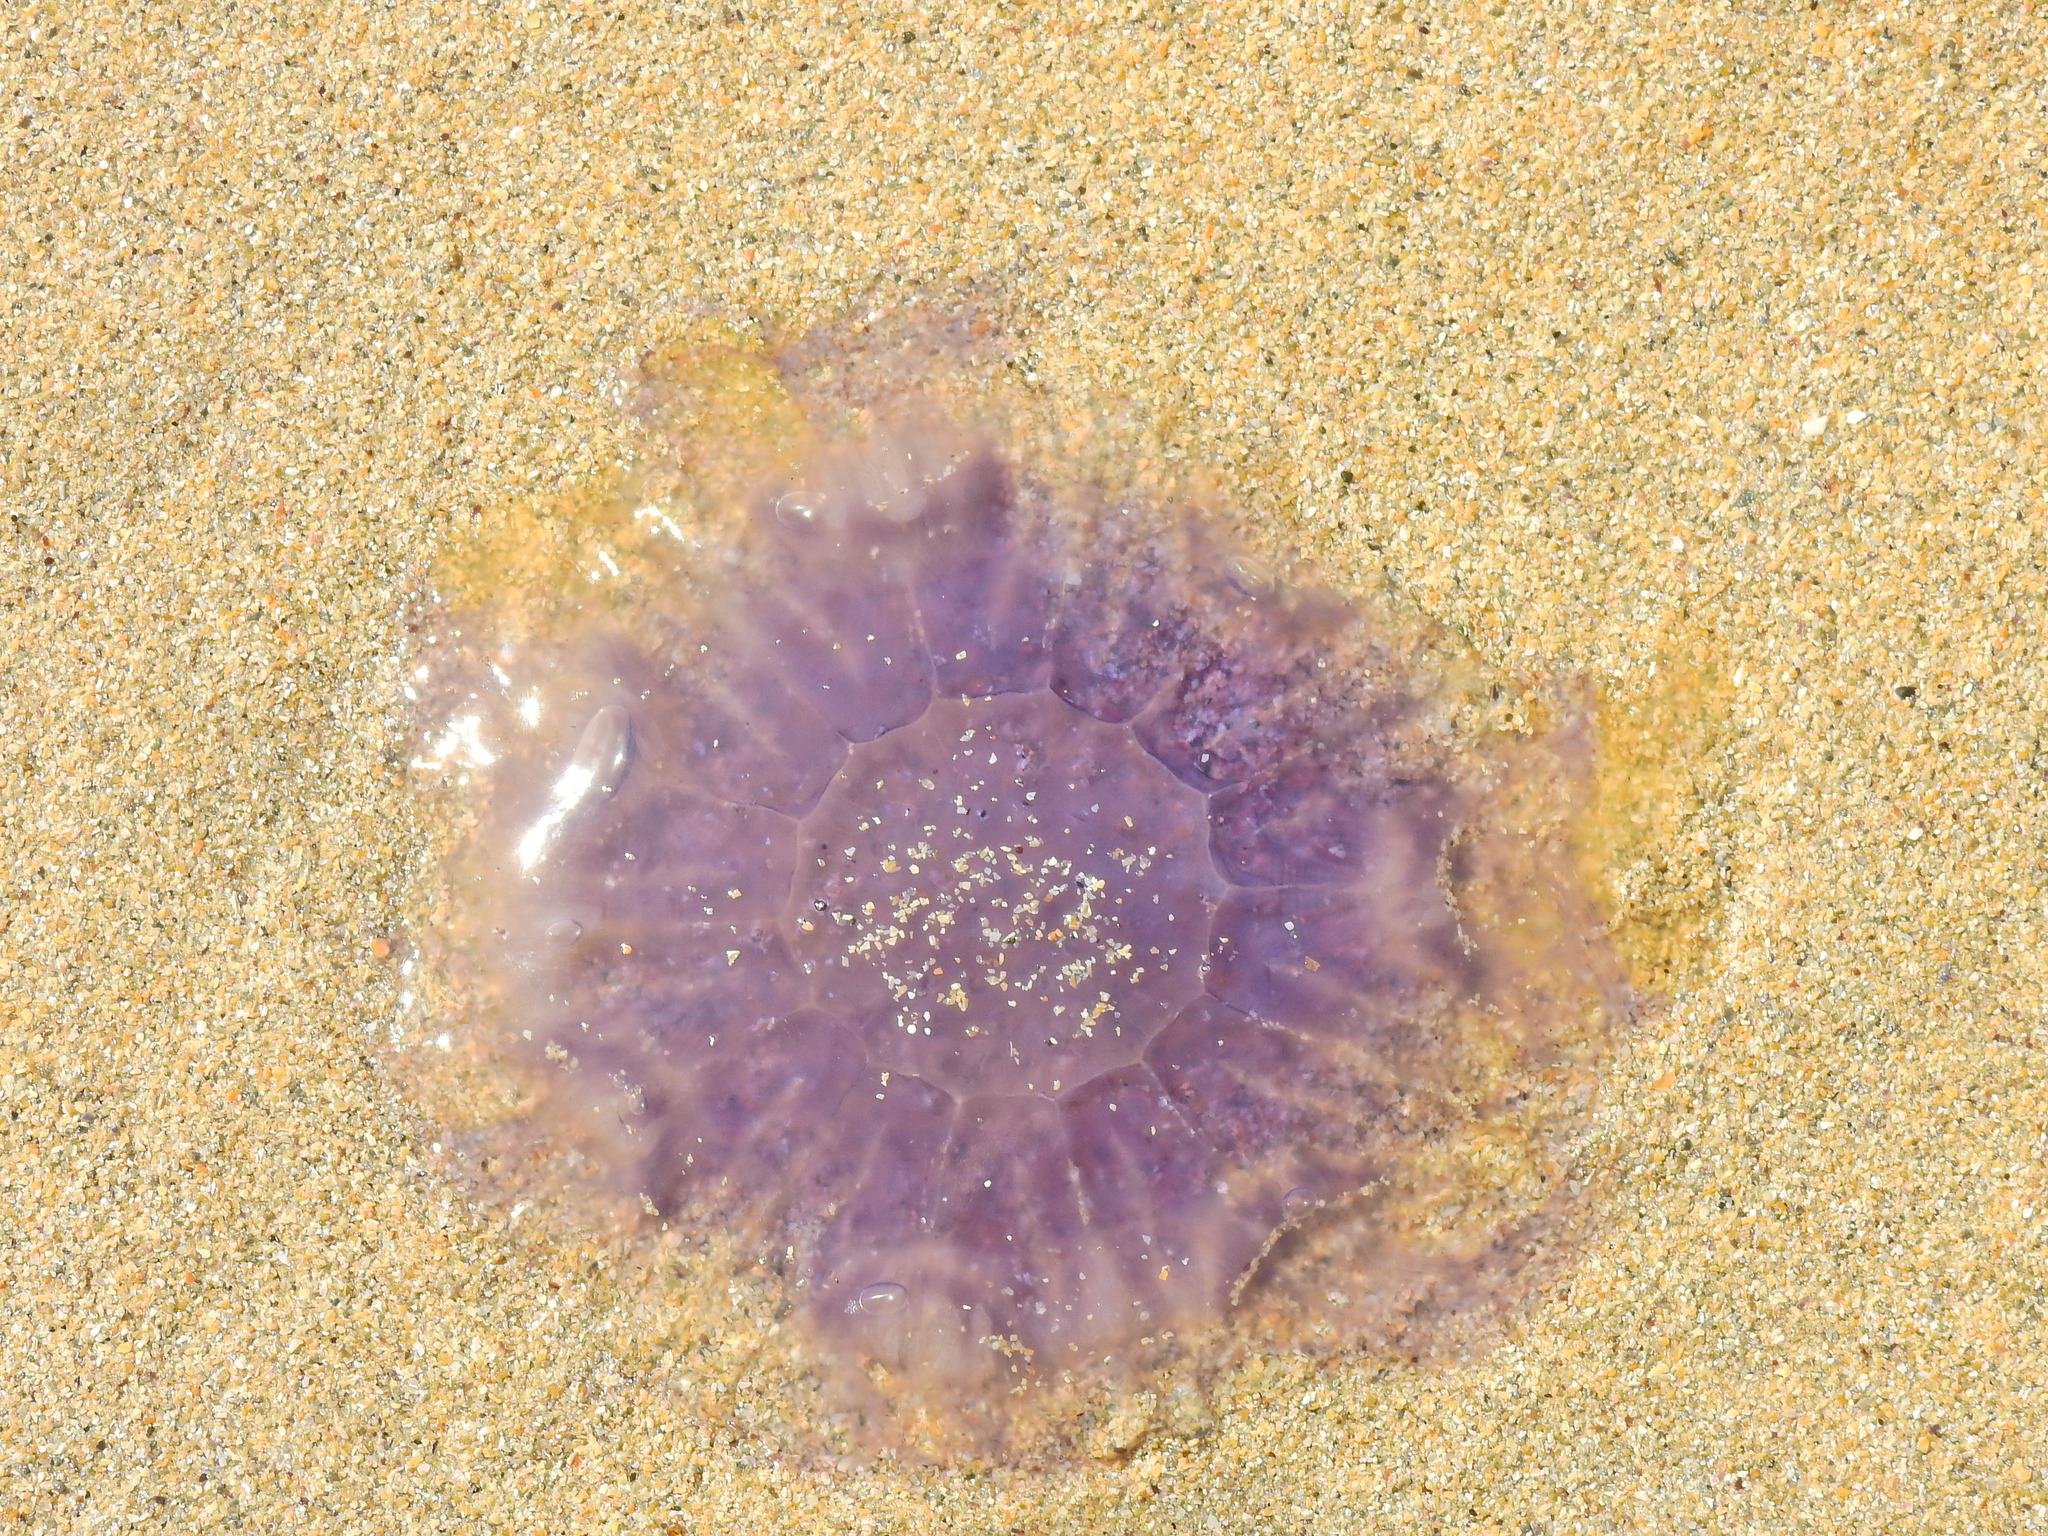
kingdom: Animalia
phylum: Cnidaria
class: Scyphozoa
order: Semaeostomeae
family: Cyaneidae
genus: Cyanea
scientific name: Cyanea lamarckii
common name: Blue jellyfish
